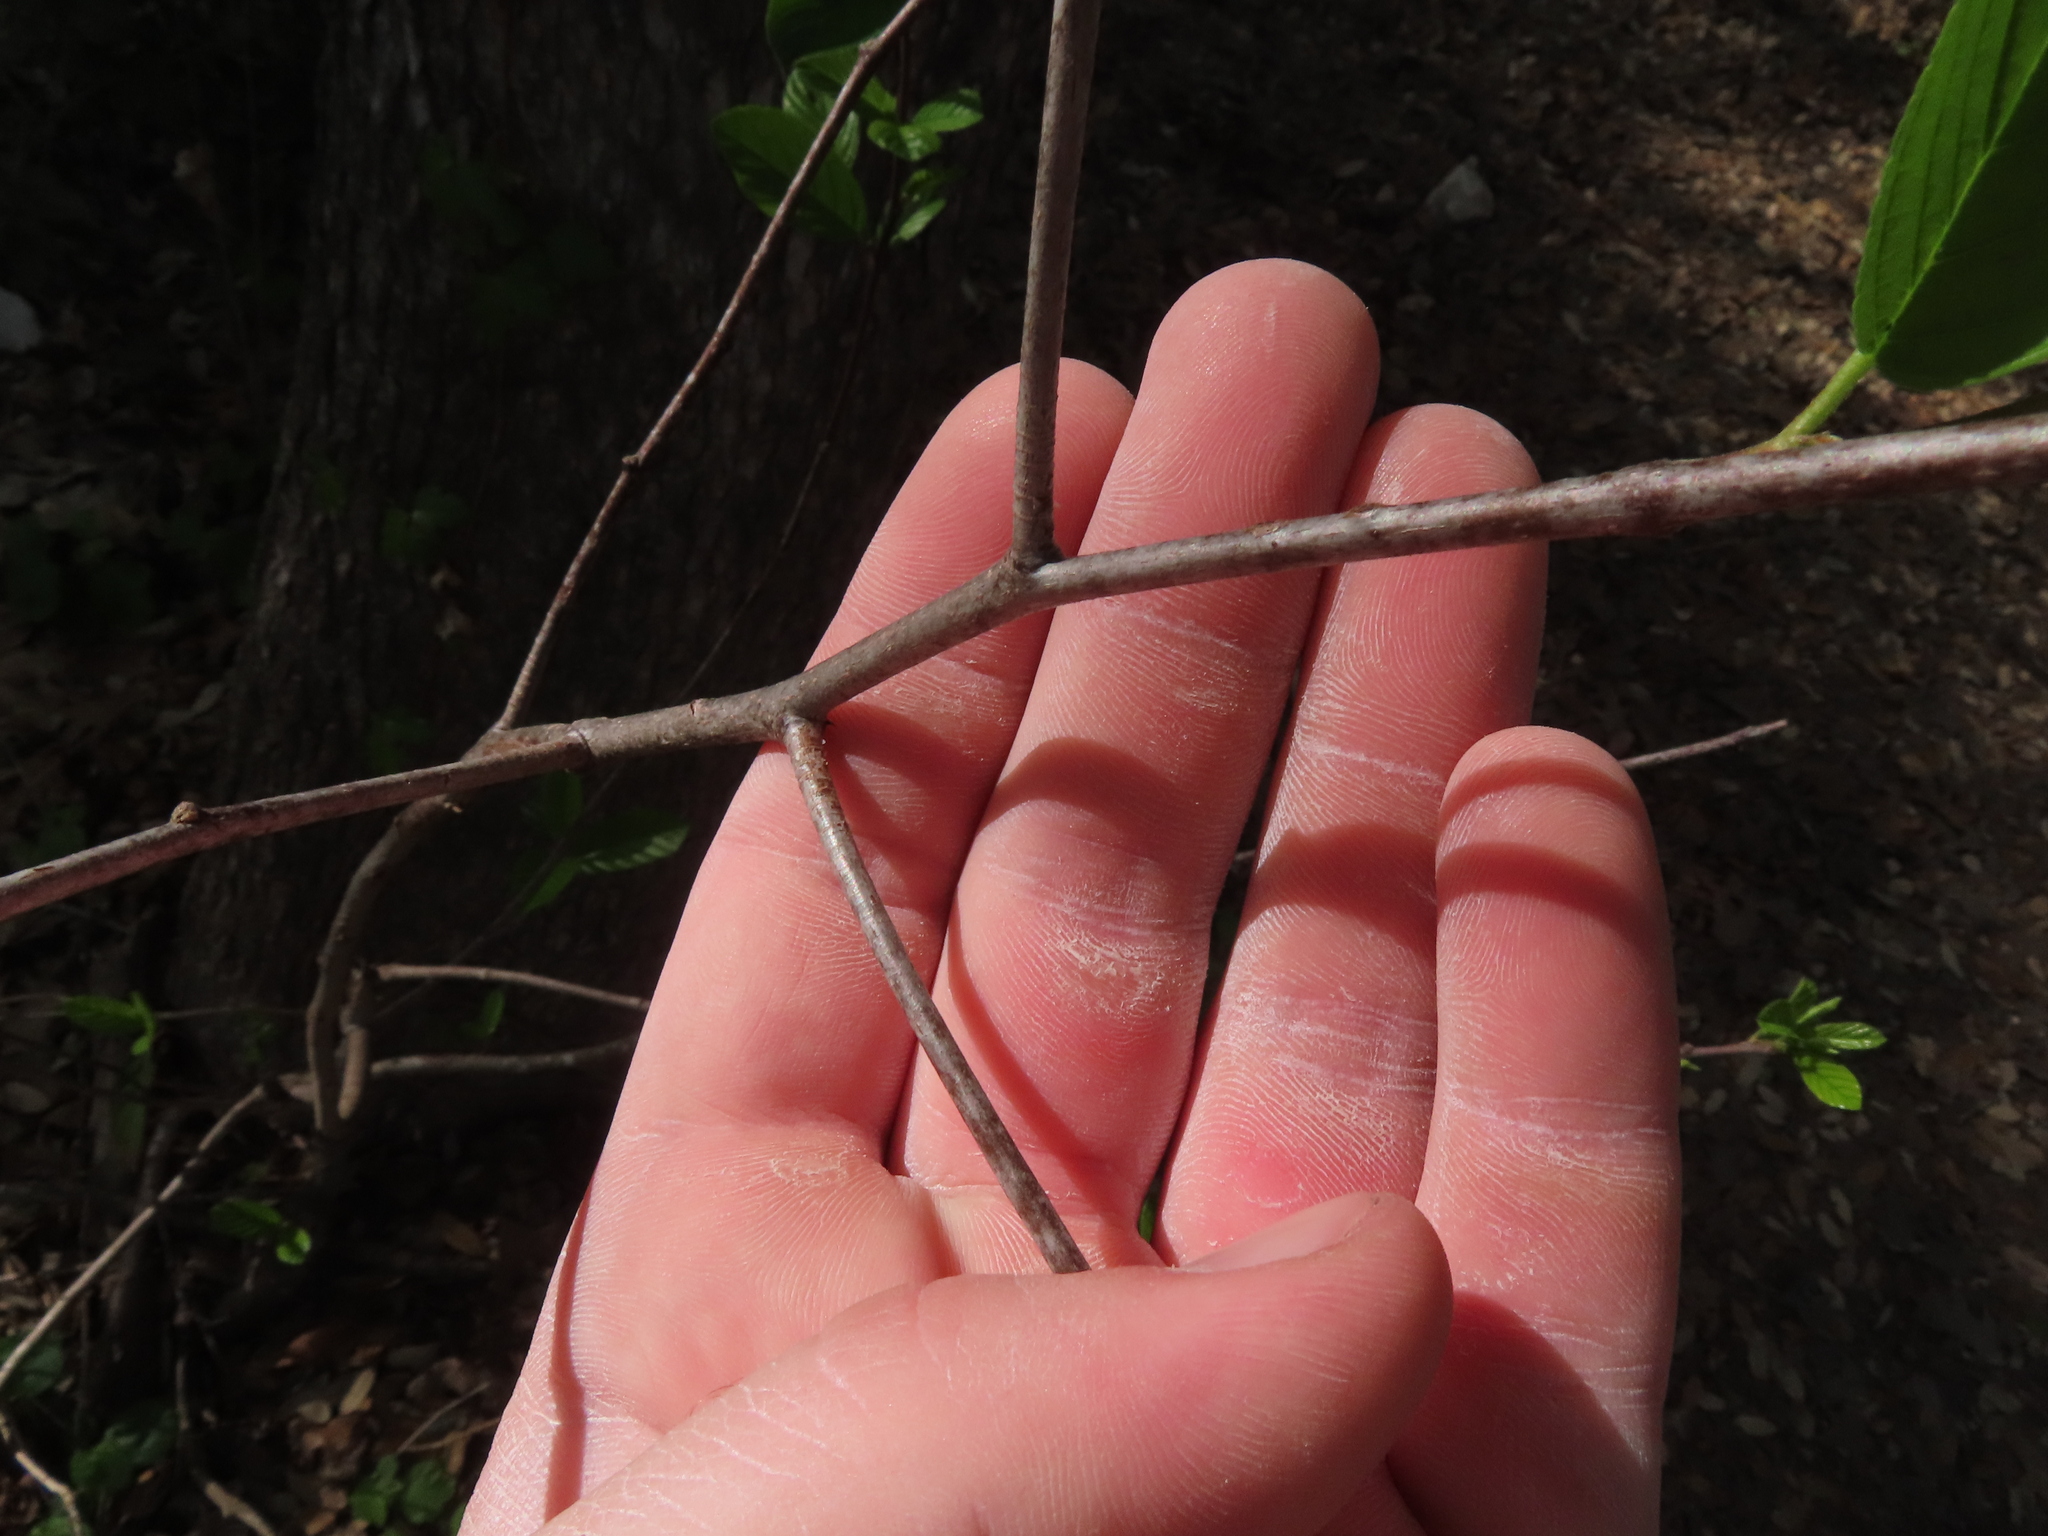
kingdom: Plantae
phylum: Tracheophyta
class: Magnoliopsida
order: Rosales
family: Rhamnaceae
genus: Frangula
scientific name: Frangula caroliniana
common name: Carolina buckthorn
